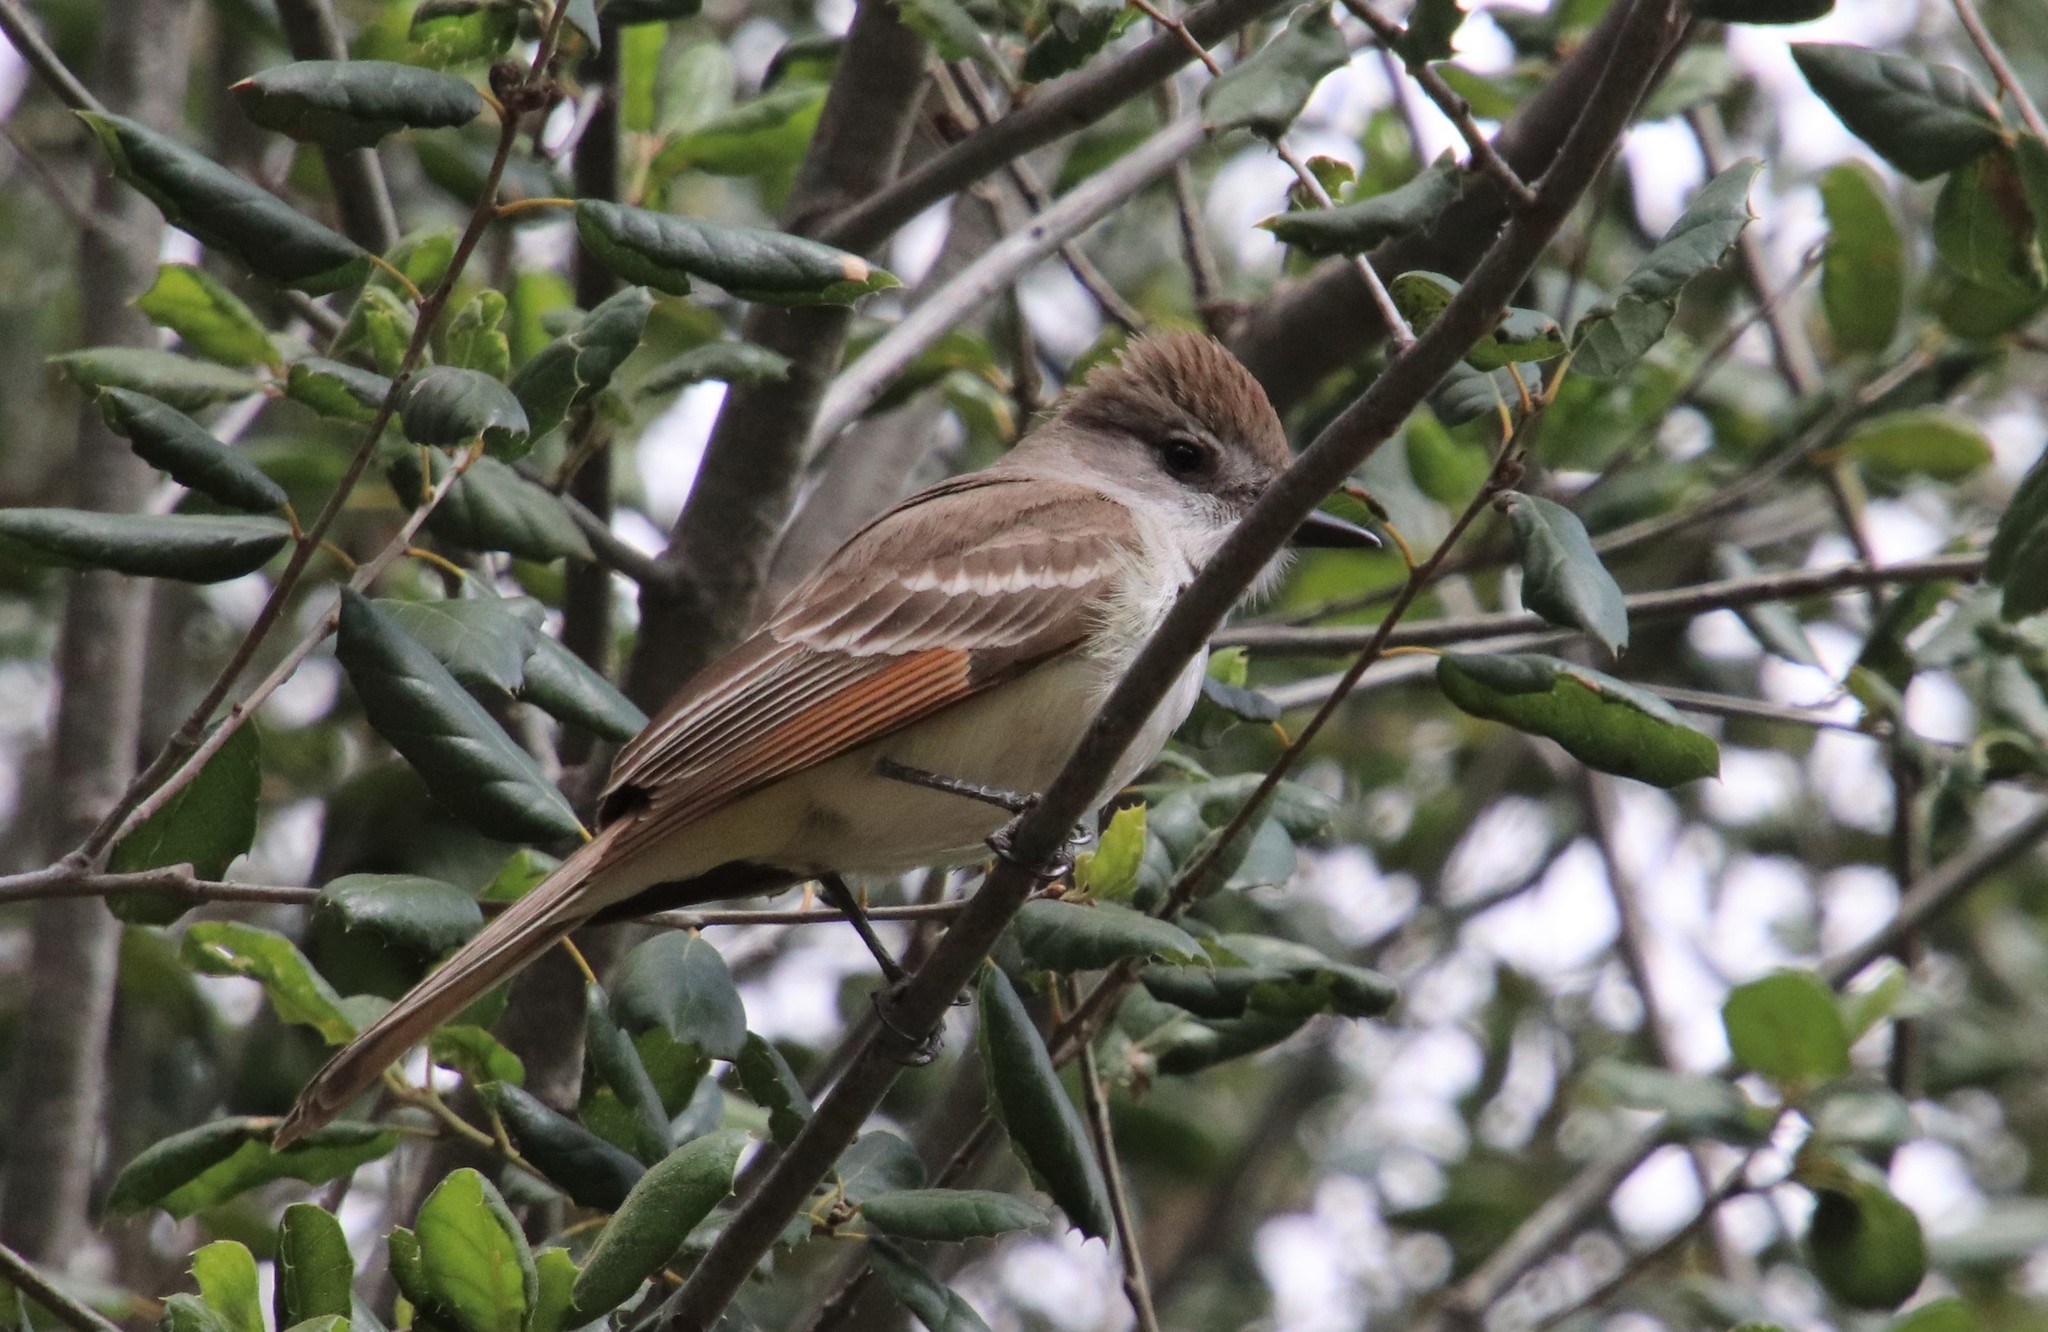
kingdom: Animalia
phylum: Chordata
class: Aves
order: Passeriformes
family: Tyrannidae
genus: Myiarchus
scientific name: Myiarchus cinerascens
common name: Ash-throated flycatcher
